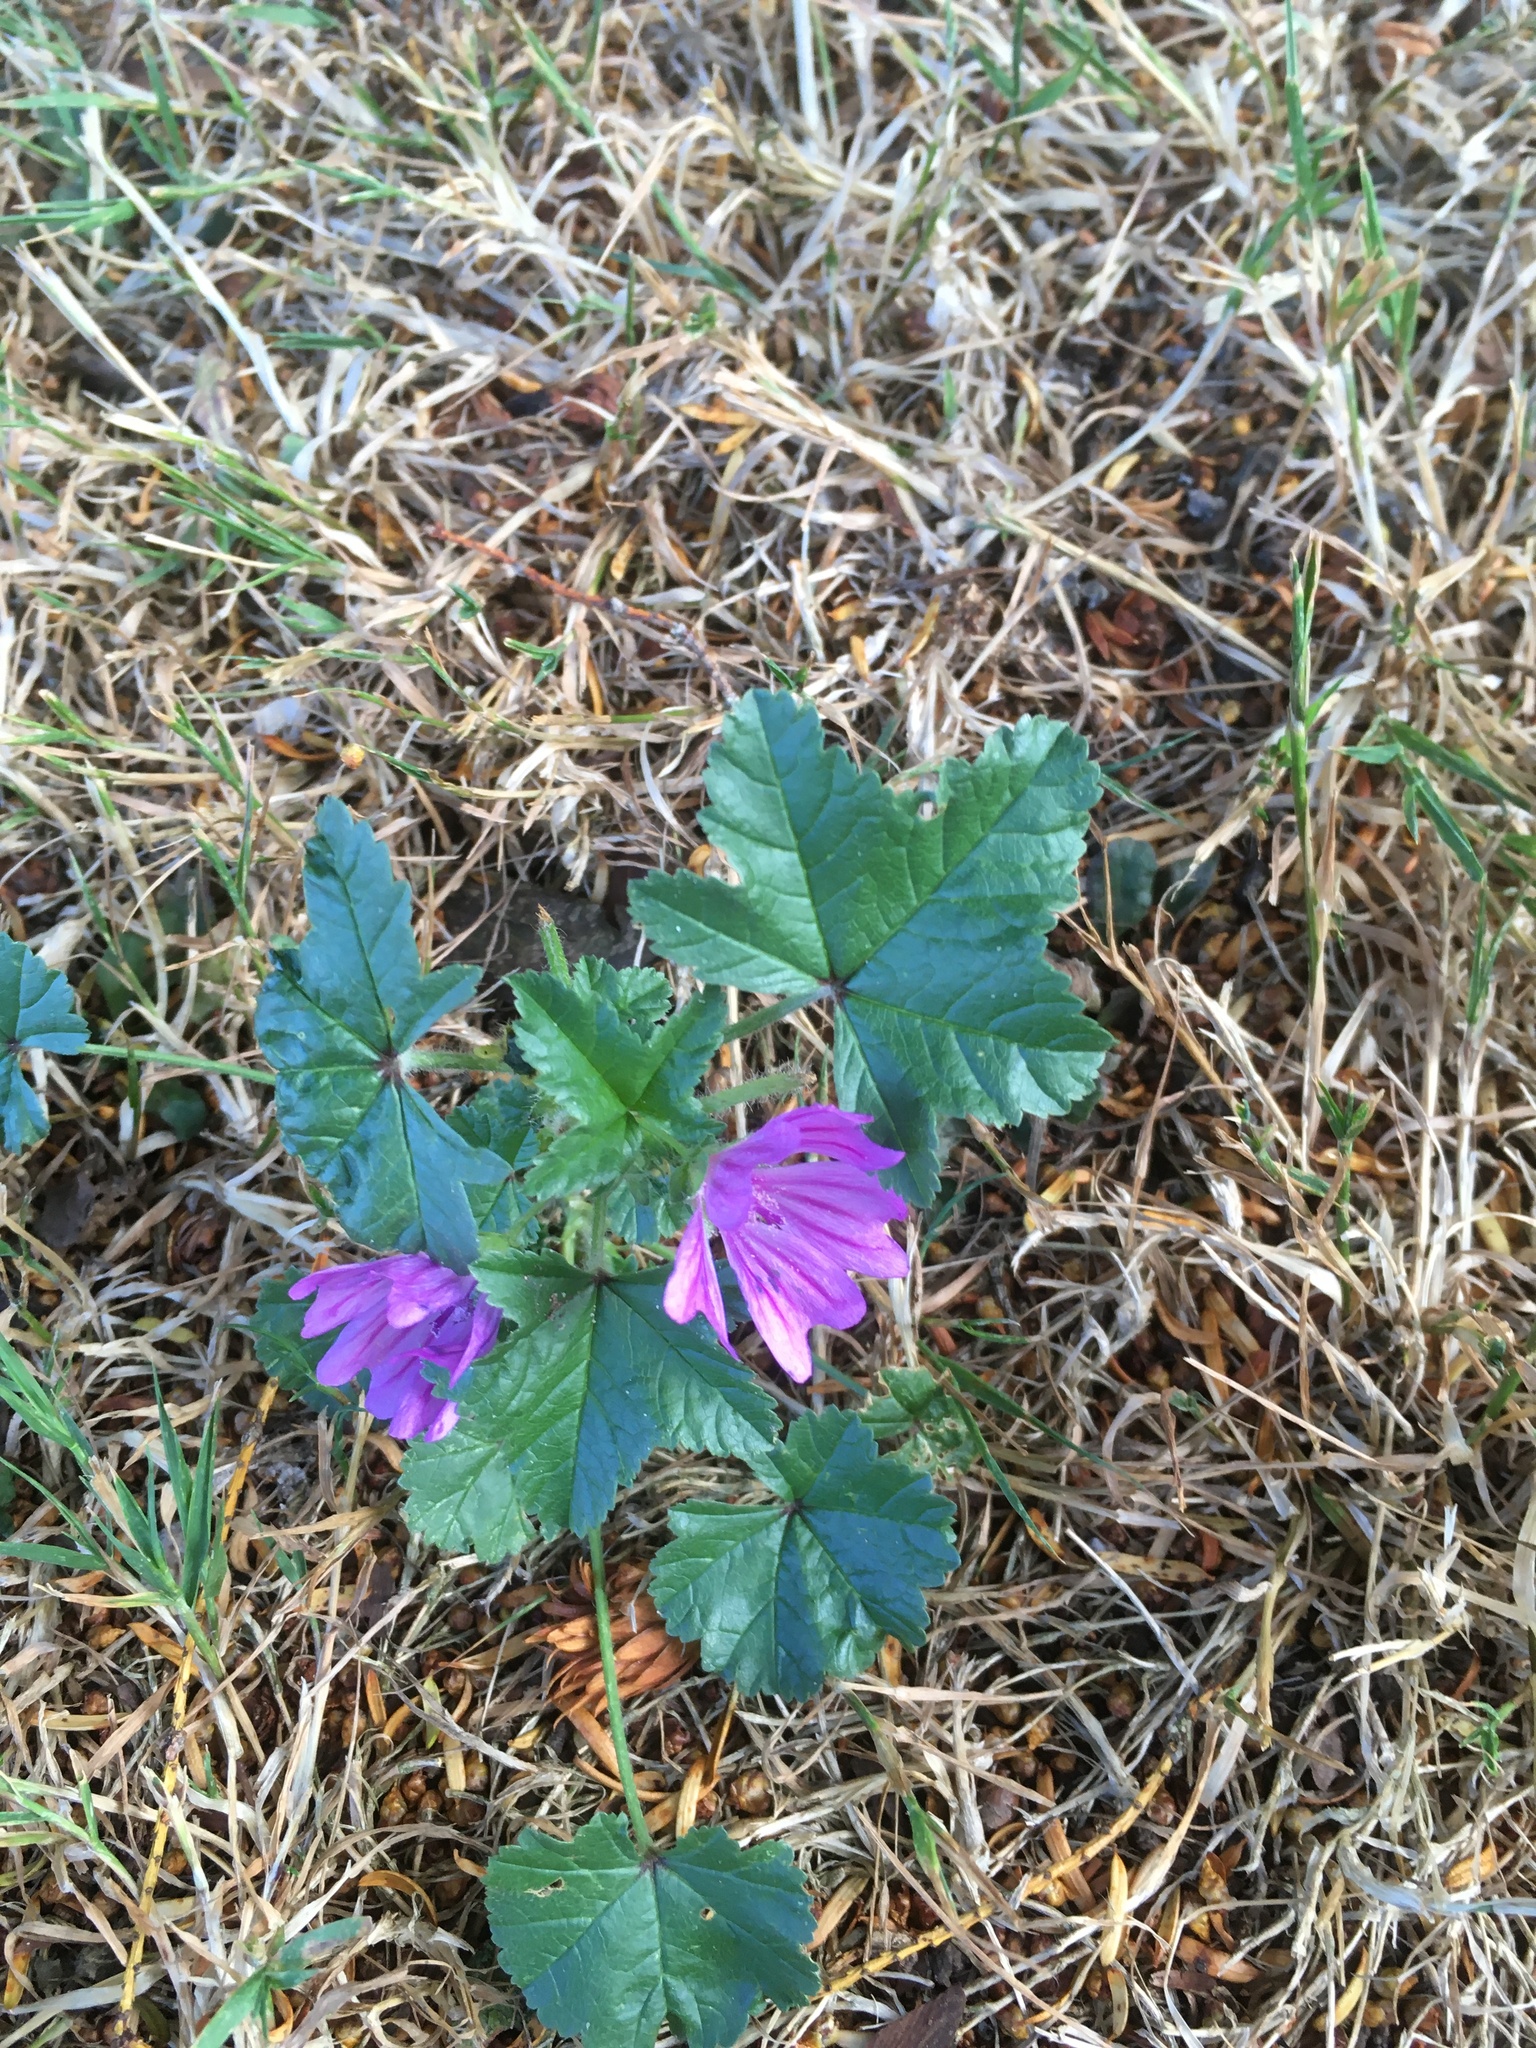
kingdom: Plantae
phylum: Tracheophyta
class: Magnoliopsida
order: Malvales
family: Malvaceae
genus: Malva
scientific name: Malva sylvestris
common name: Common mallow
